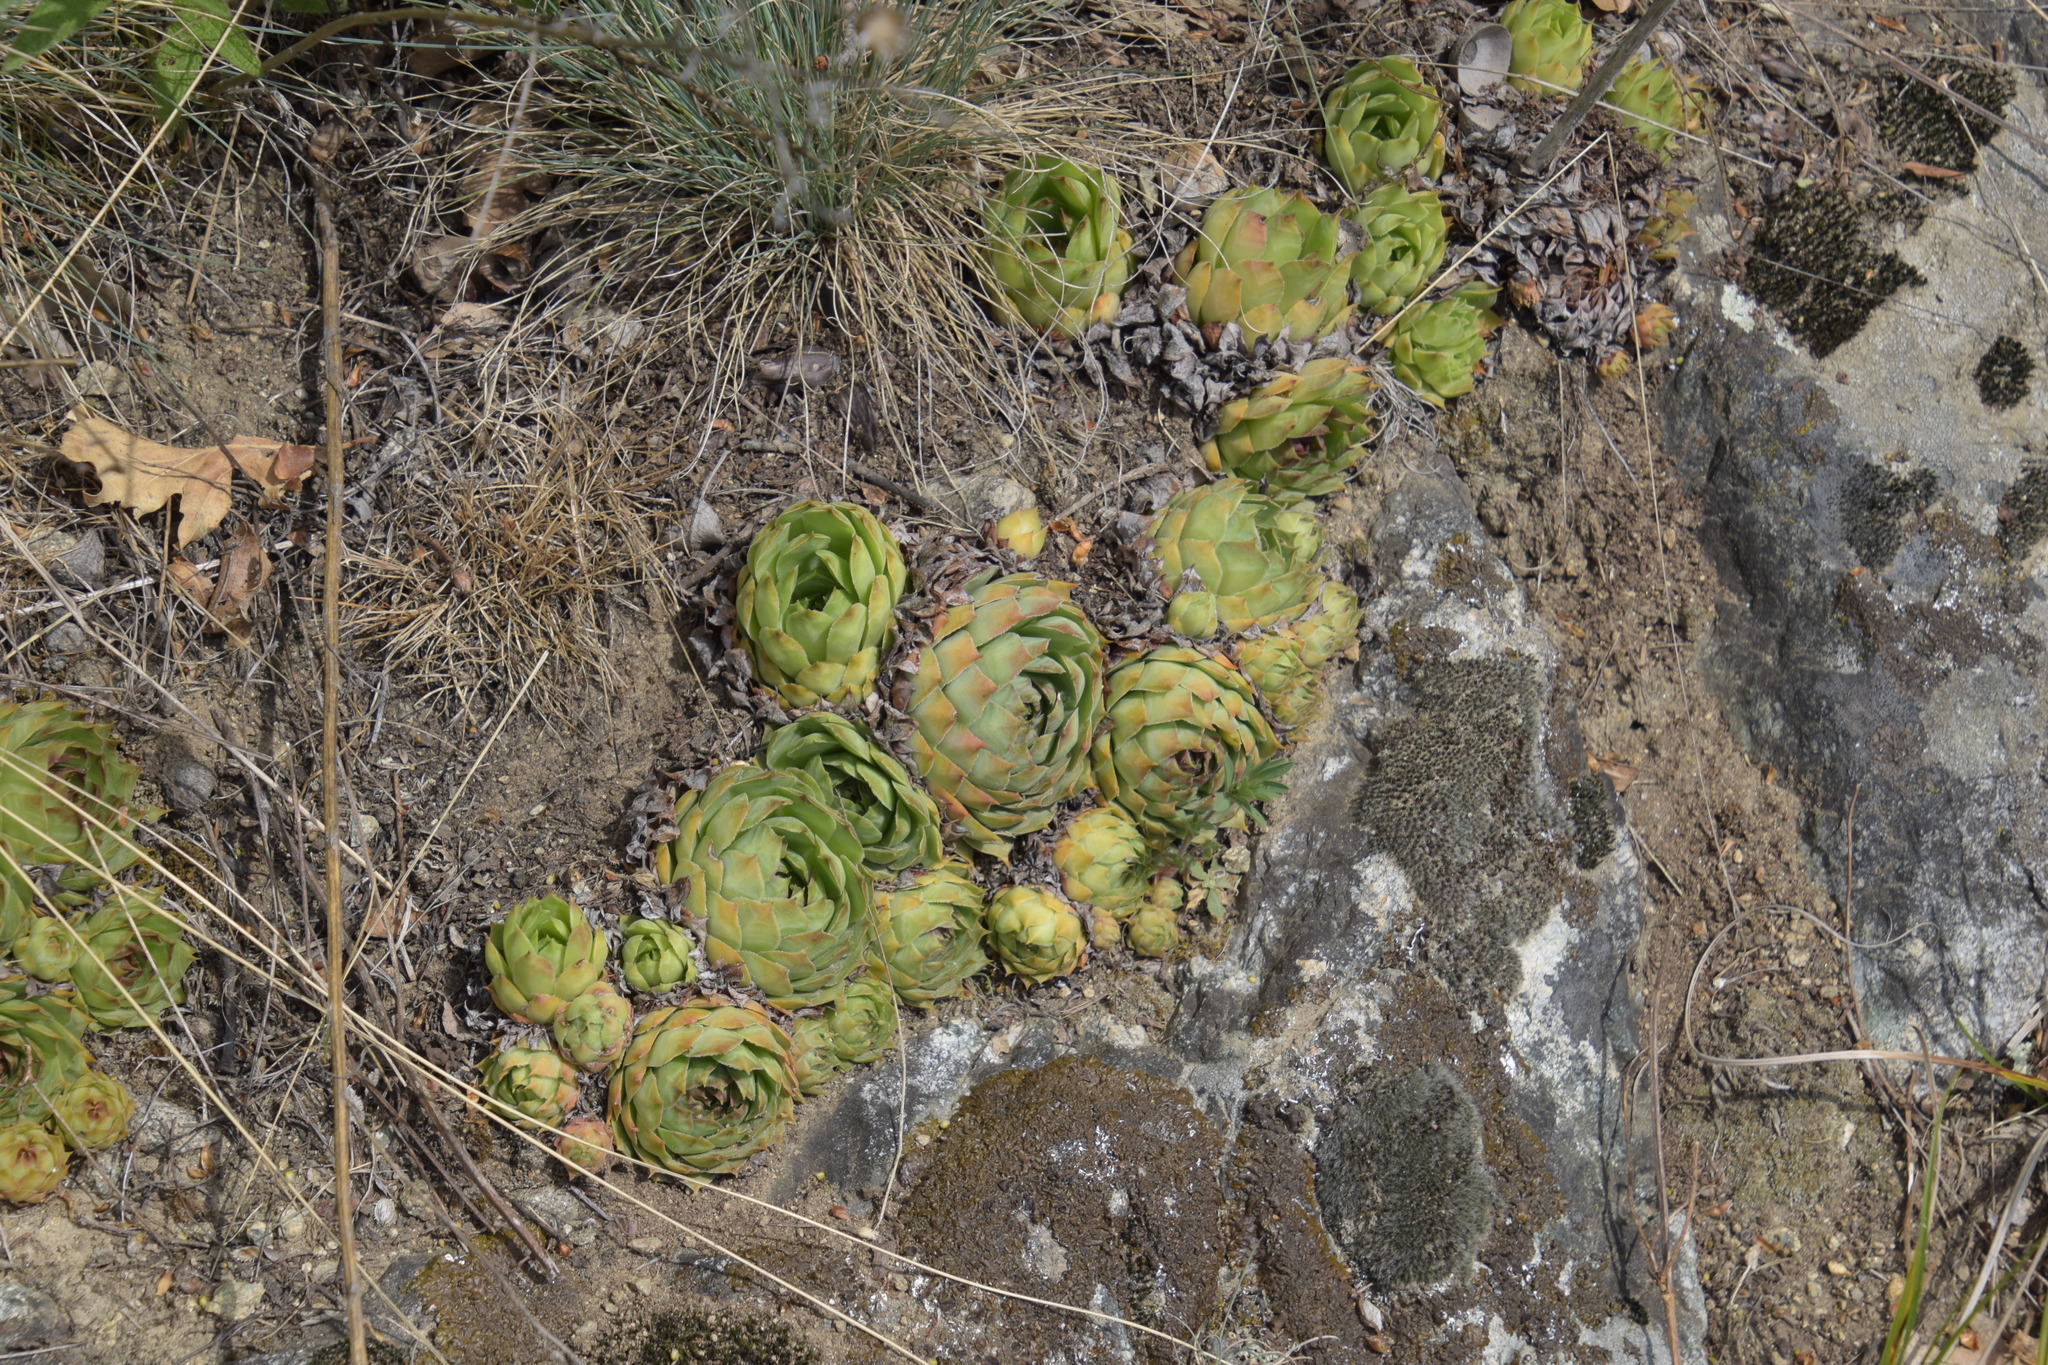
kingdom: Plantae
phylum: Tracheophyta
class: Magnoliopsida
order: Saxifragales
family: Crassulaceae
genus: Sempervivum
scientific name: Sempervivum tectorum
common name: House-leek
